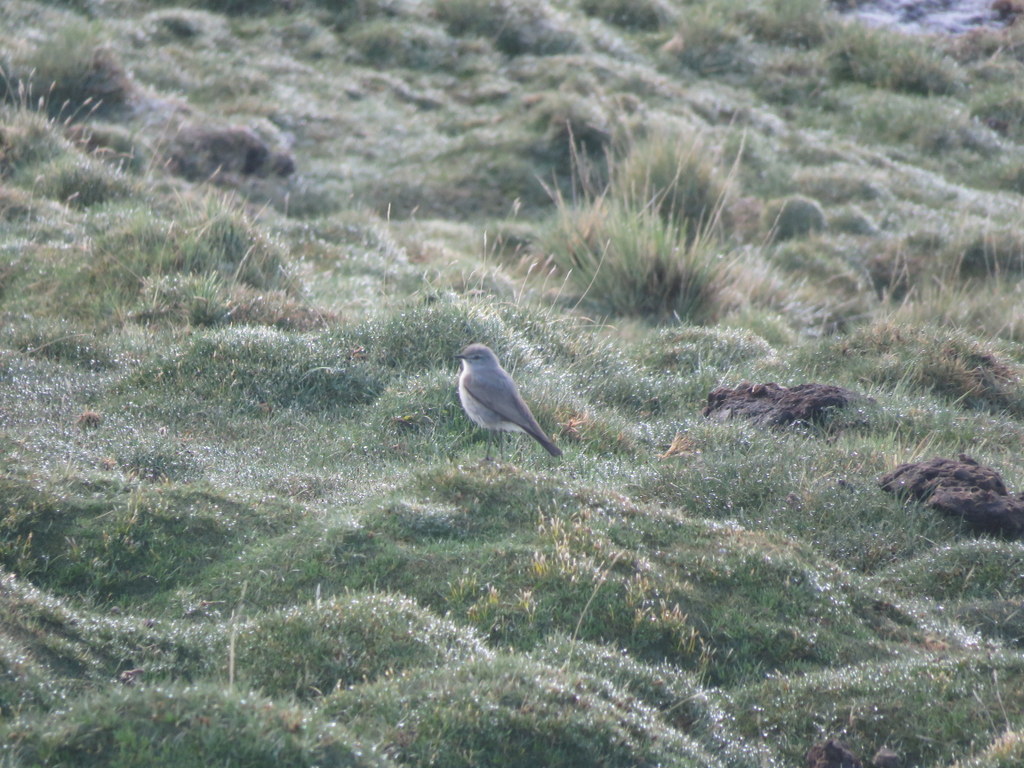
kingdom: Animalia
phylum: Chordata
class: Aves
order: Passeriformes
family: Tyrannidae
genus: Muscisaxicola
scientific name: Muscisaxicola juninensis
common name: Puna ground tyrant
